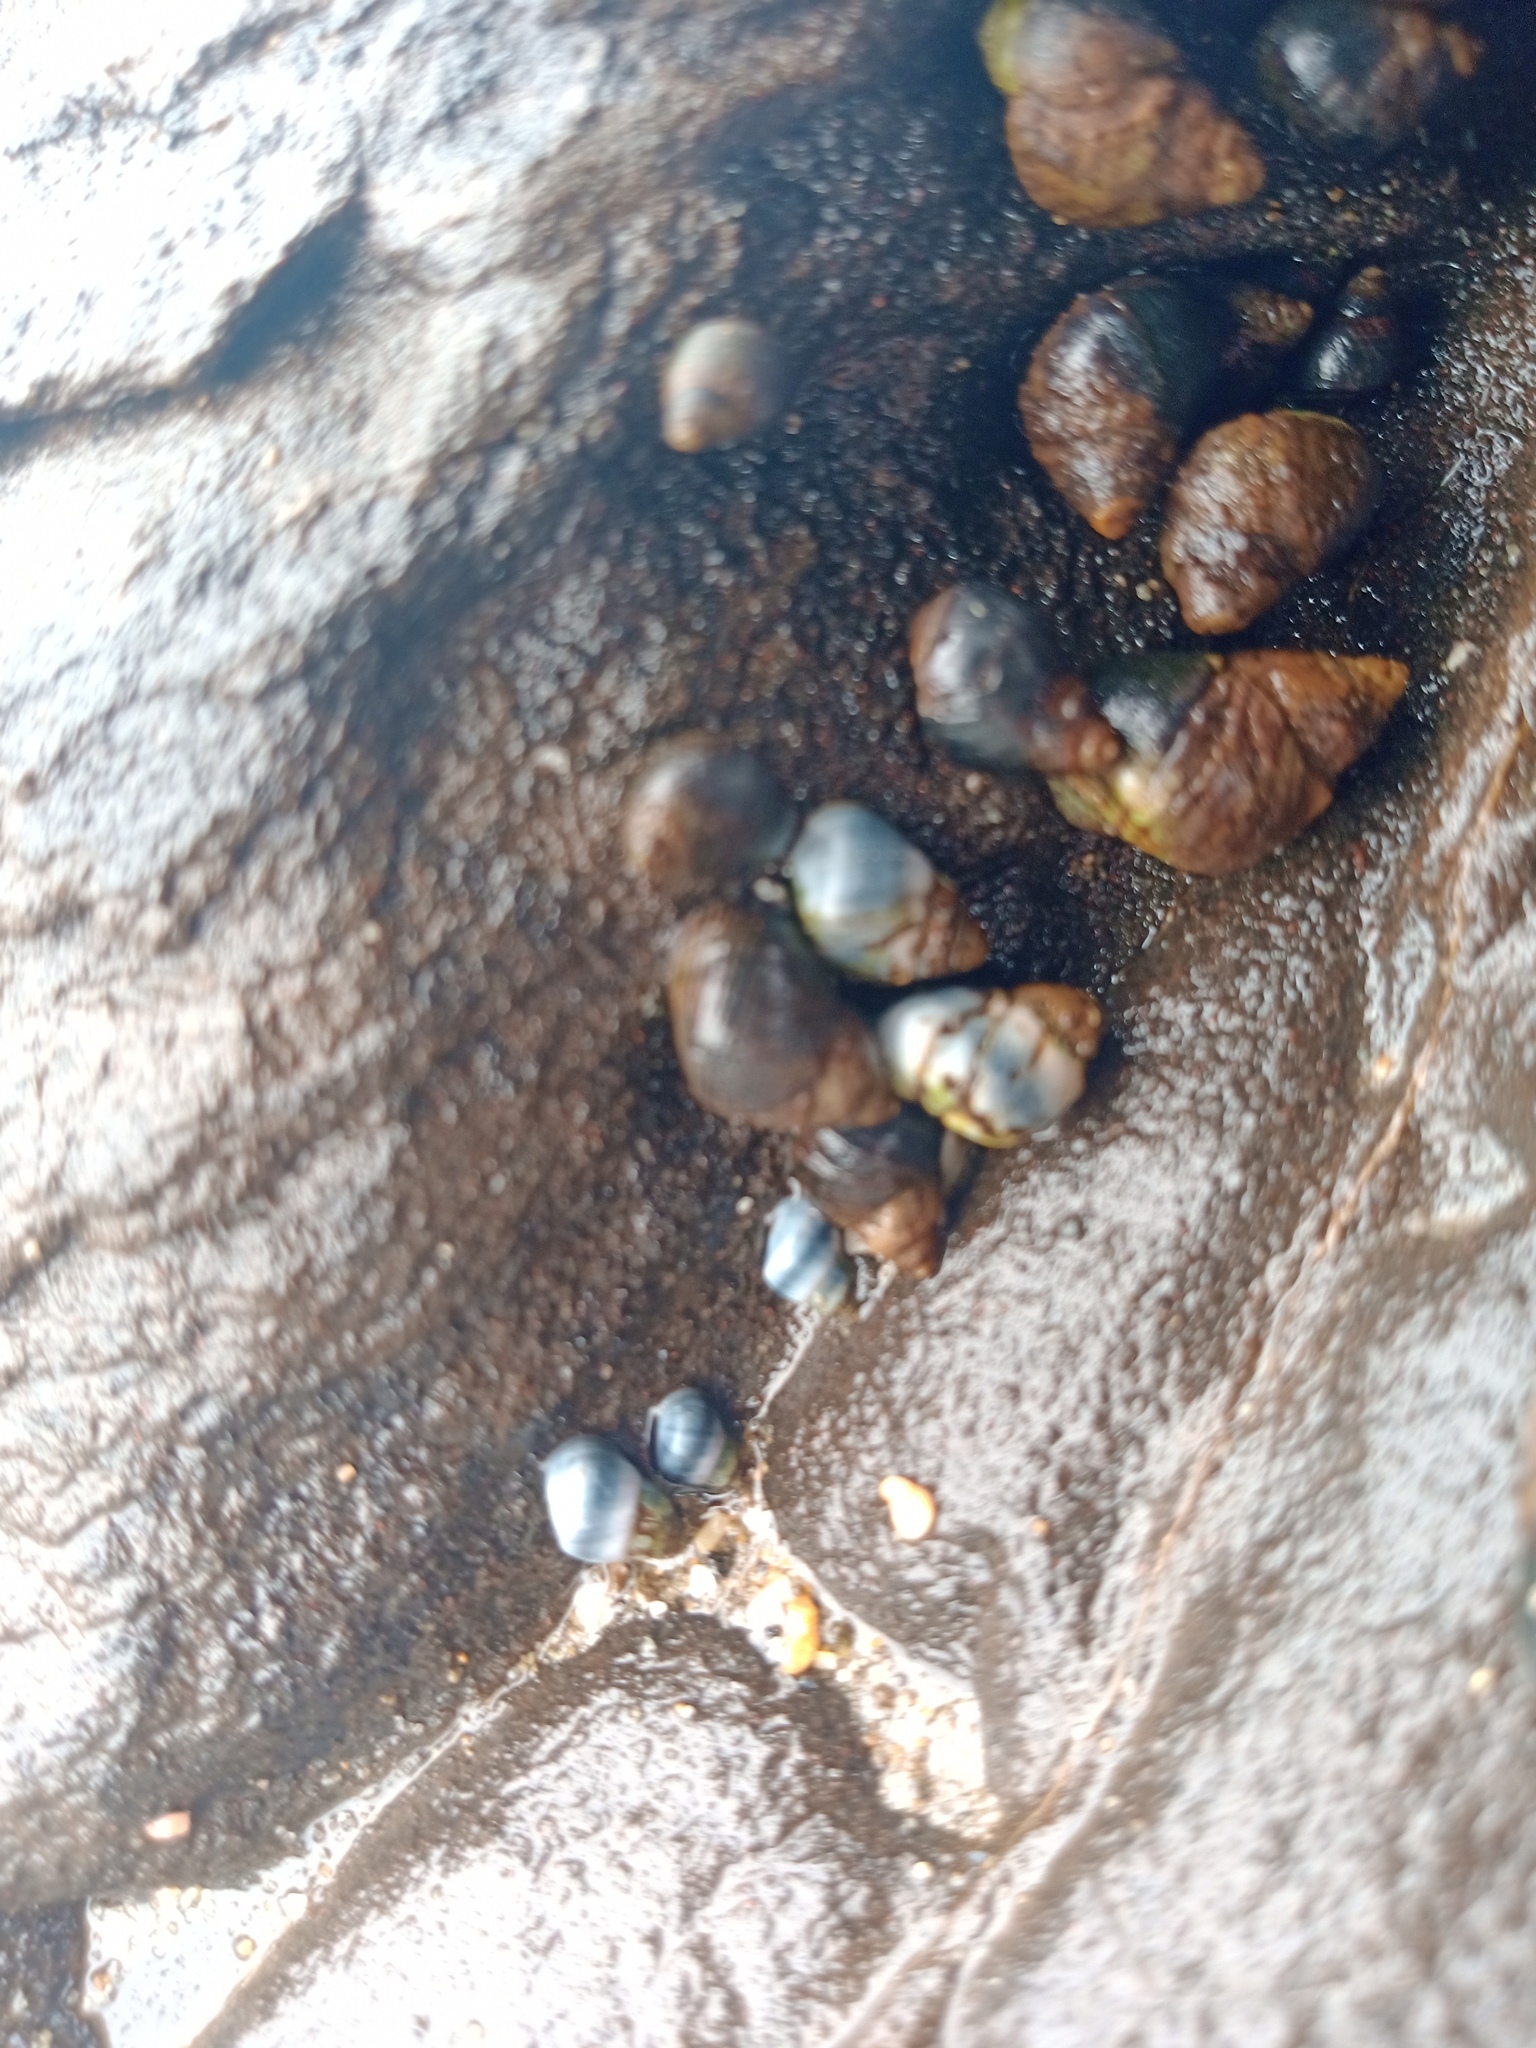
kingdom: Animalia
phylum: Mollusca
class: Gastropoda
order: Littorinimorpha
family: Littorinidae
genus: Austrolittorina
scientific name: Austrolittorina cincta
